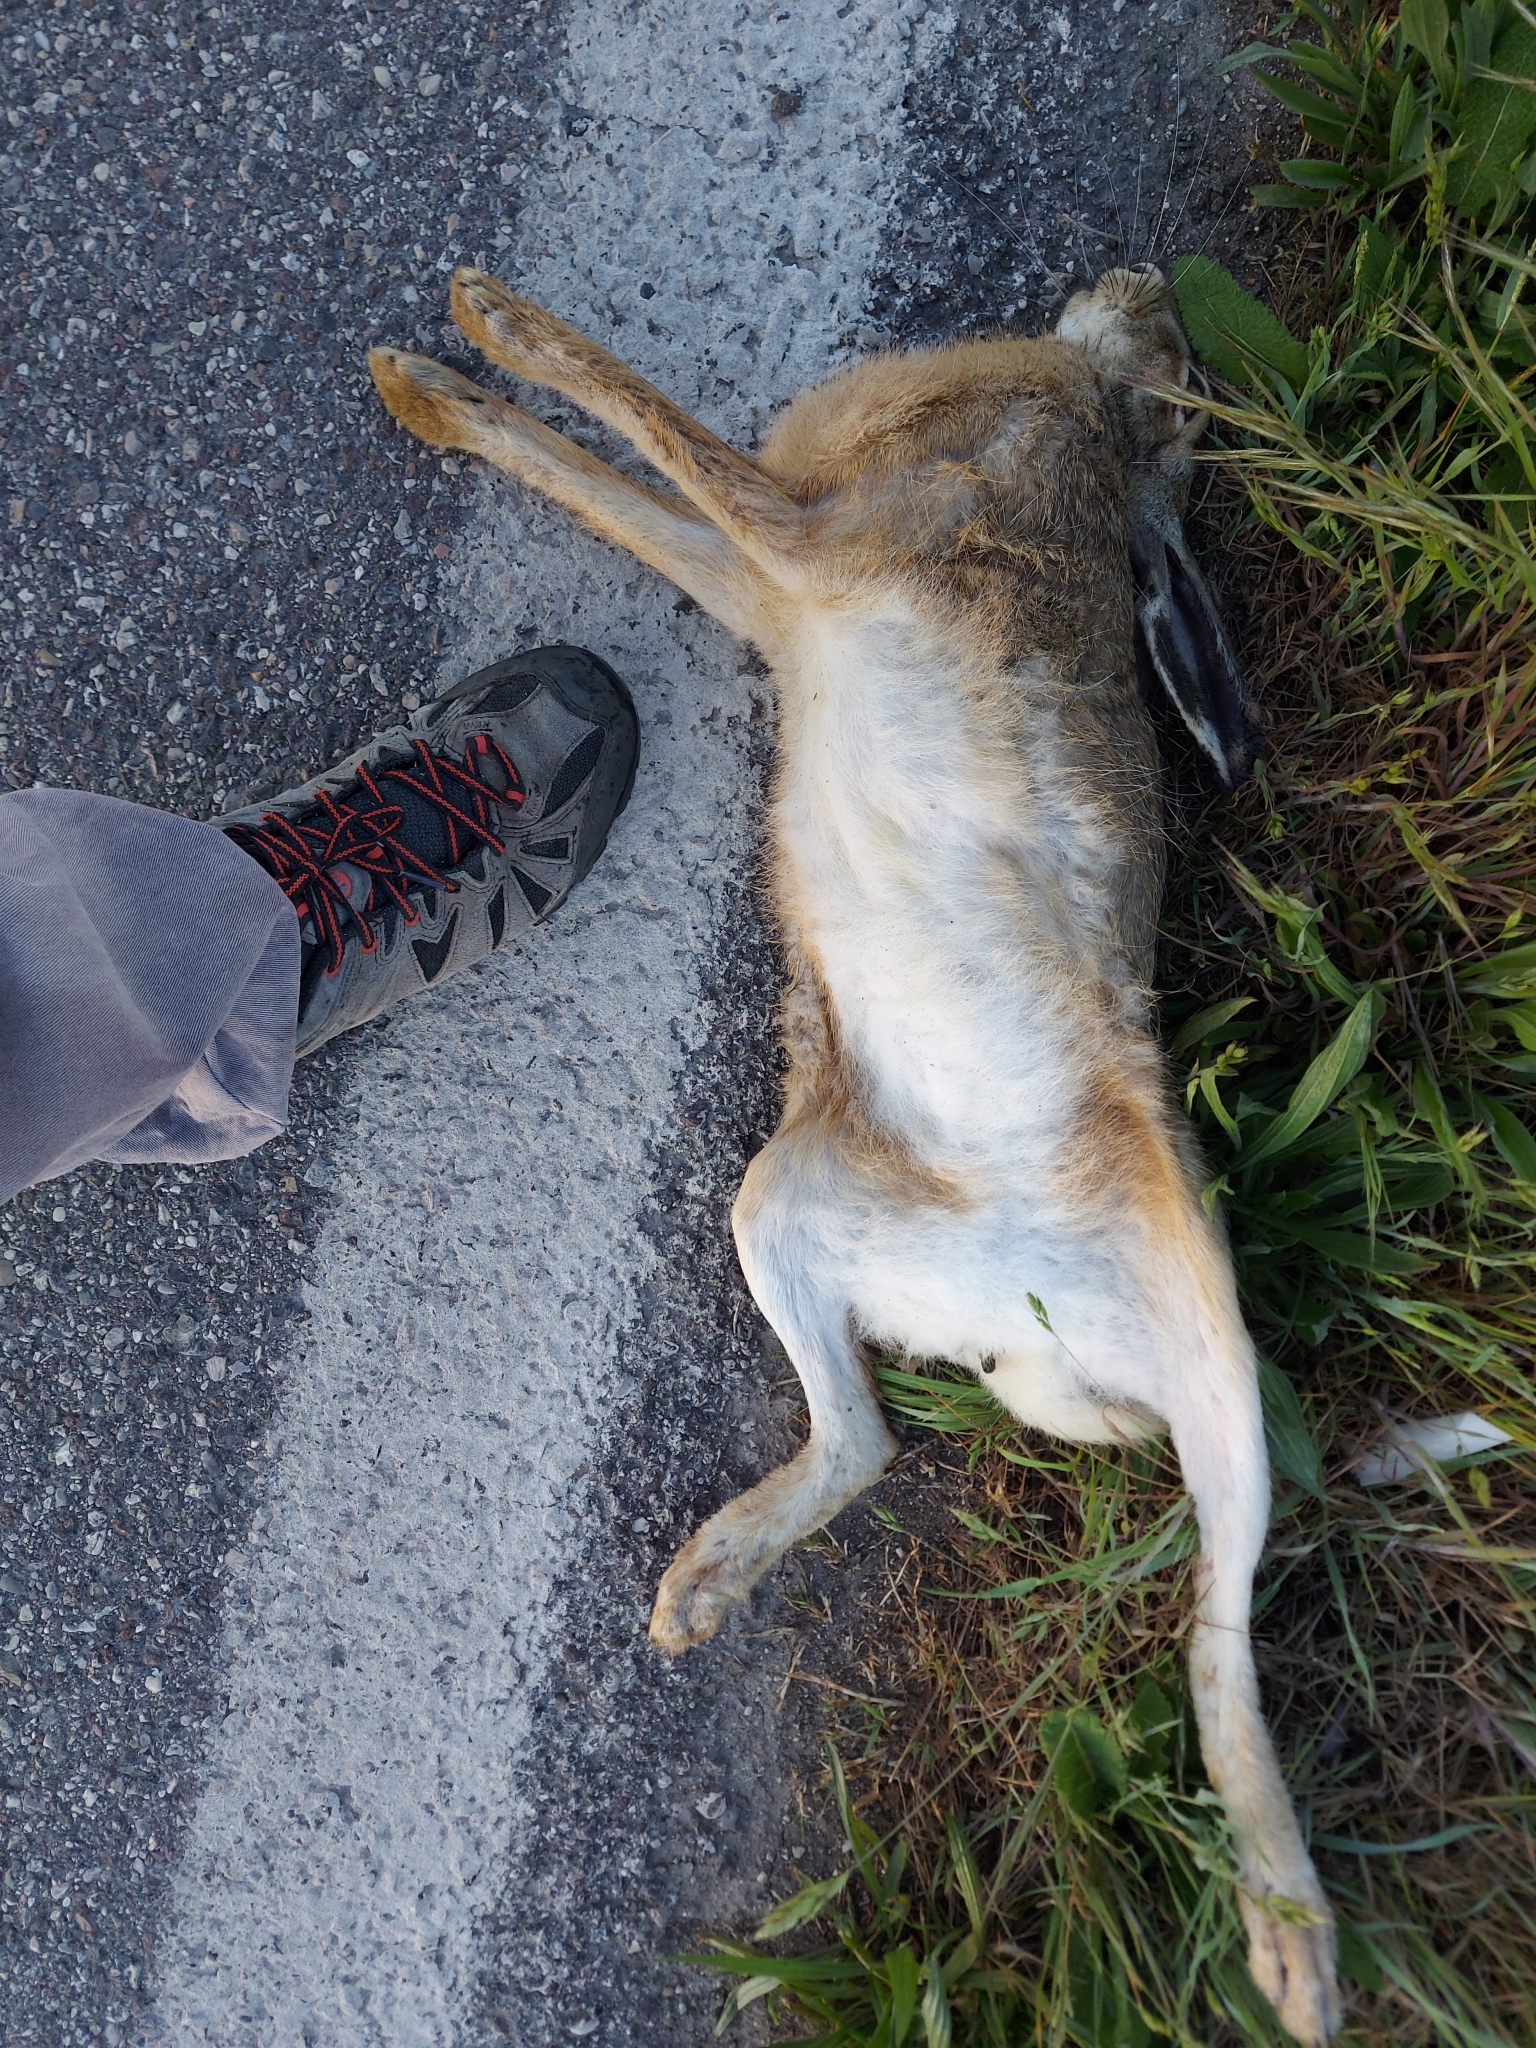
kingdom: Animalia
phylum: Chordata
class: Mammalia
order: Lagomorpha
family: Leporidae
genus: Lepus
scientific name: Lepus europaeus
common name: European hare
